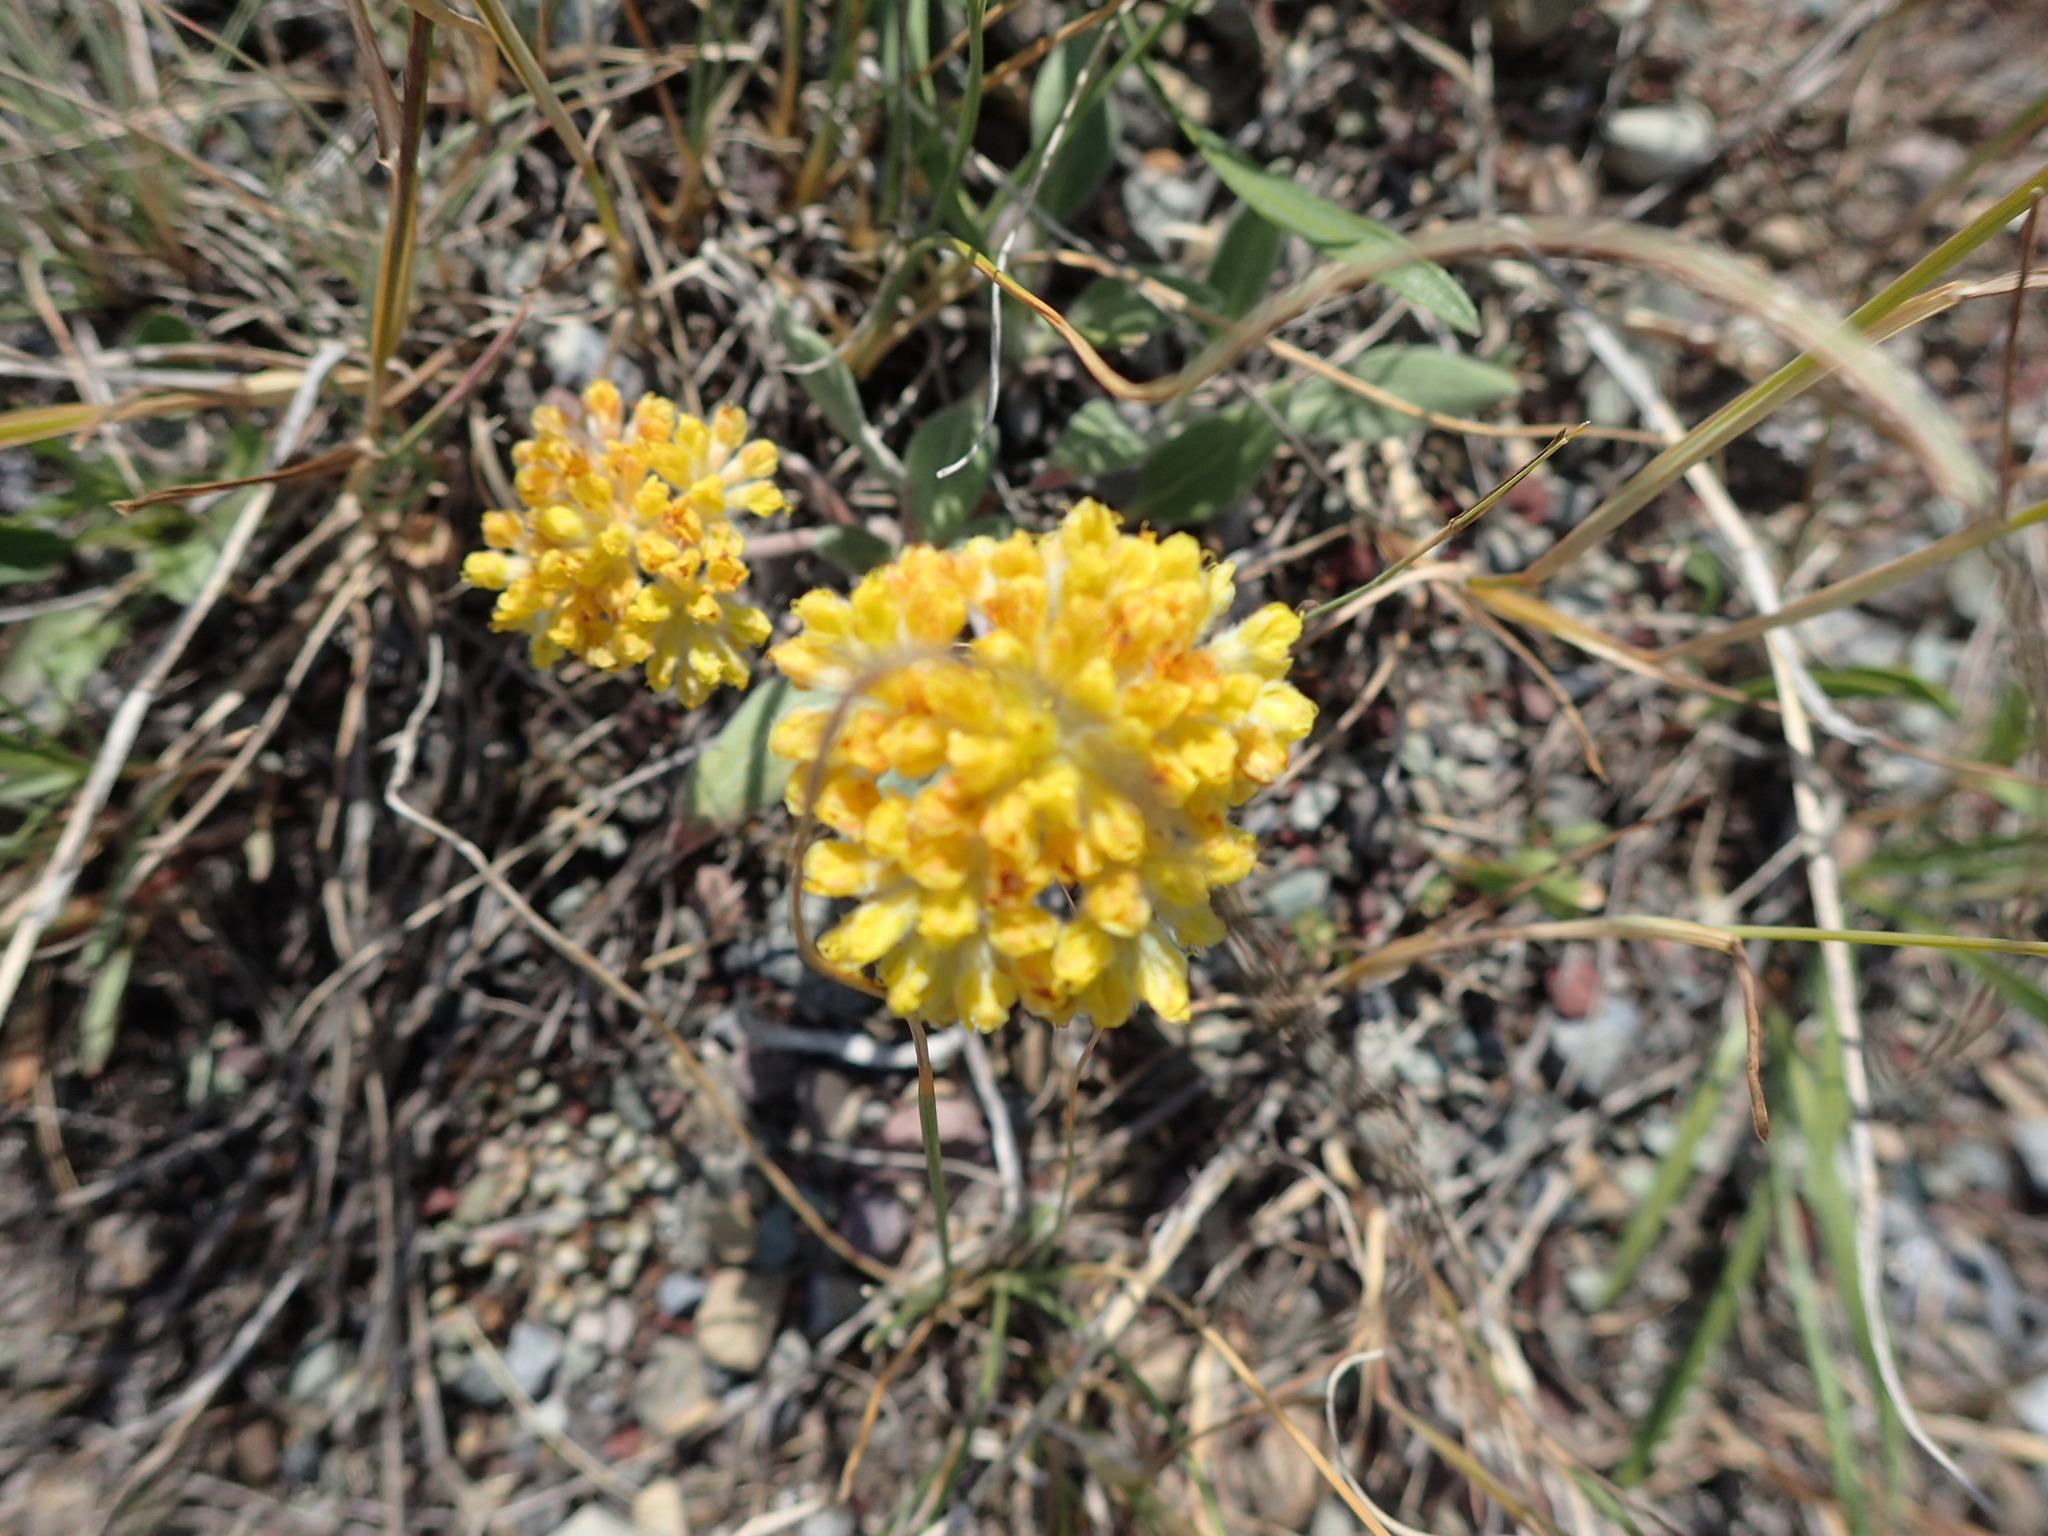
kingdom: Plantae
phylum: Tracheophyta
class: Magnoliopsida
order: Caryophyllales
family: Polygonaceae
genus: Eriogonum
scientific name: Eriogonum flavum
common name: Alpine golden wild buckwheat
